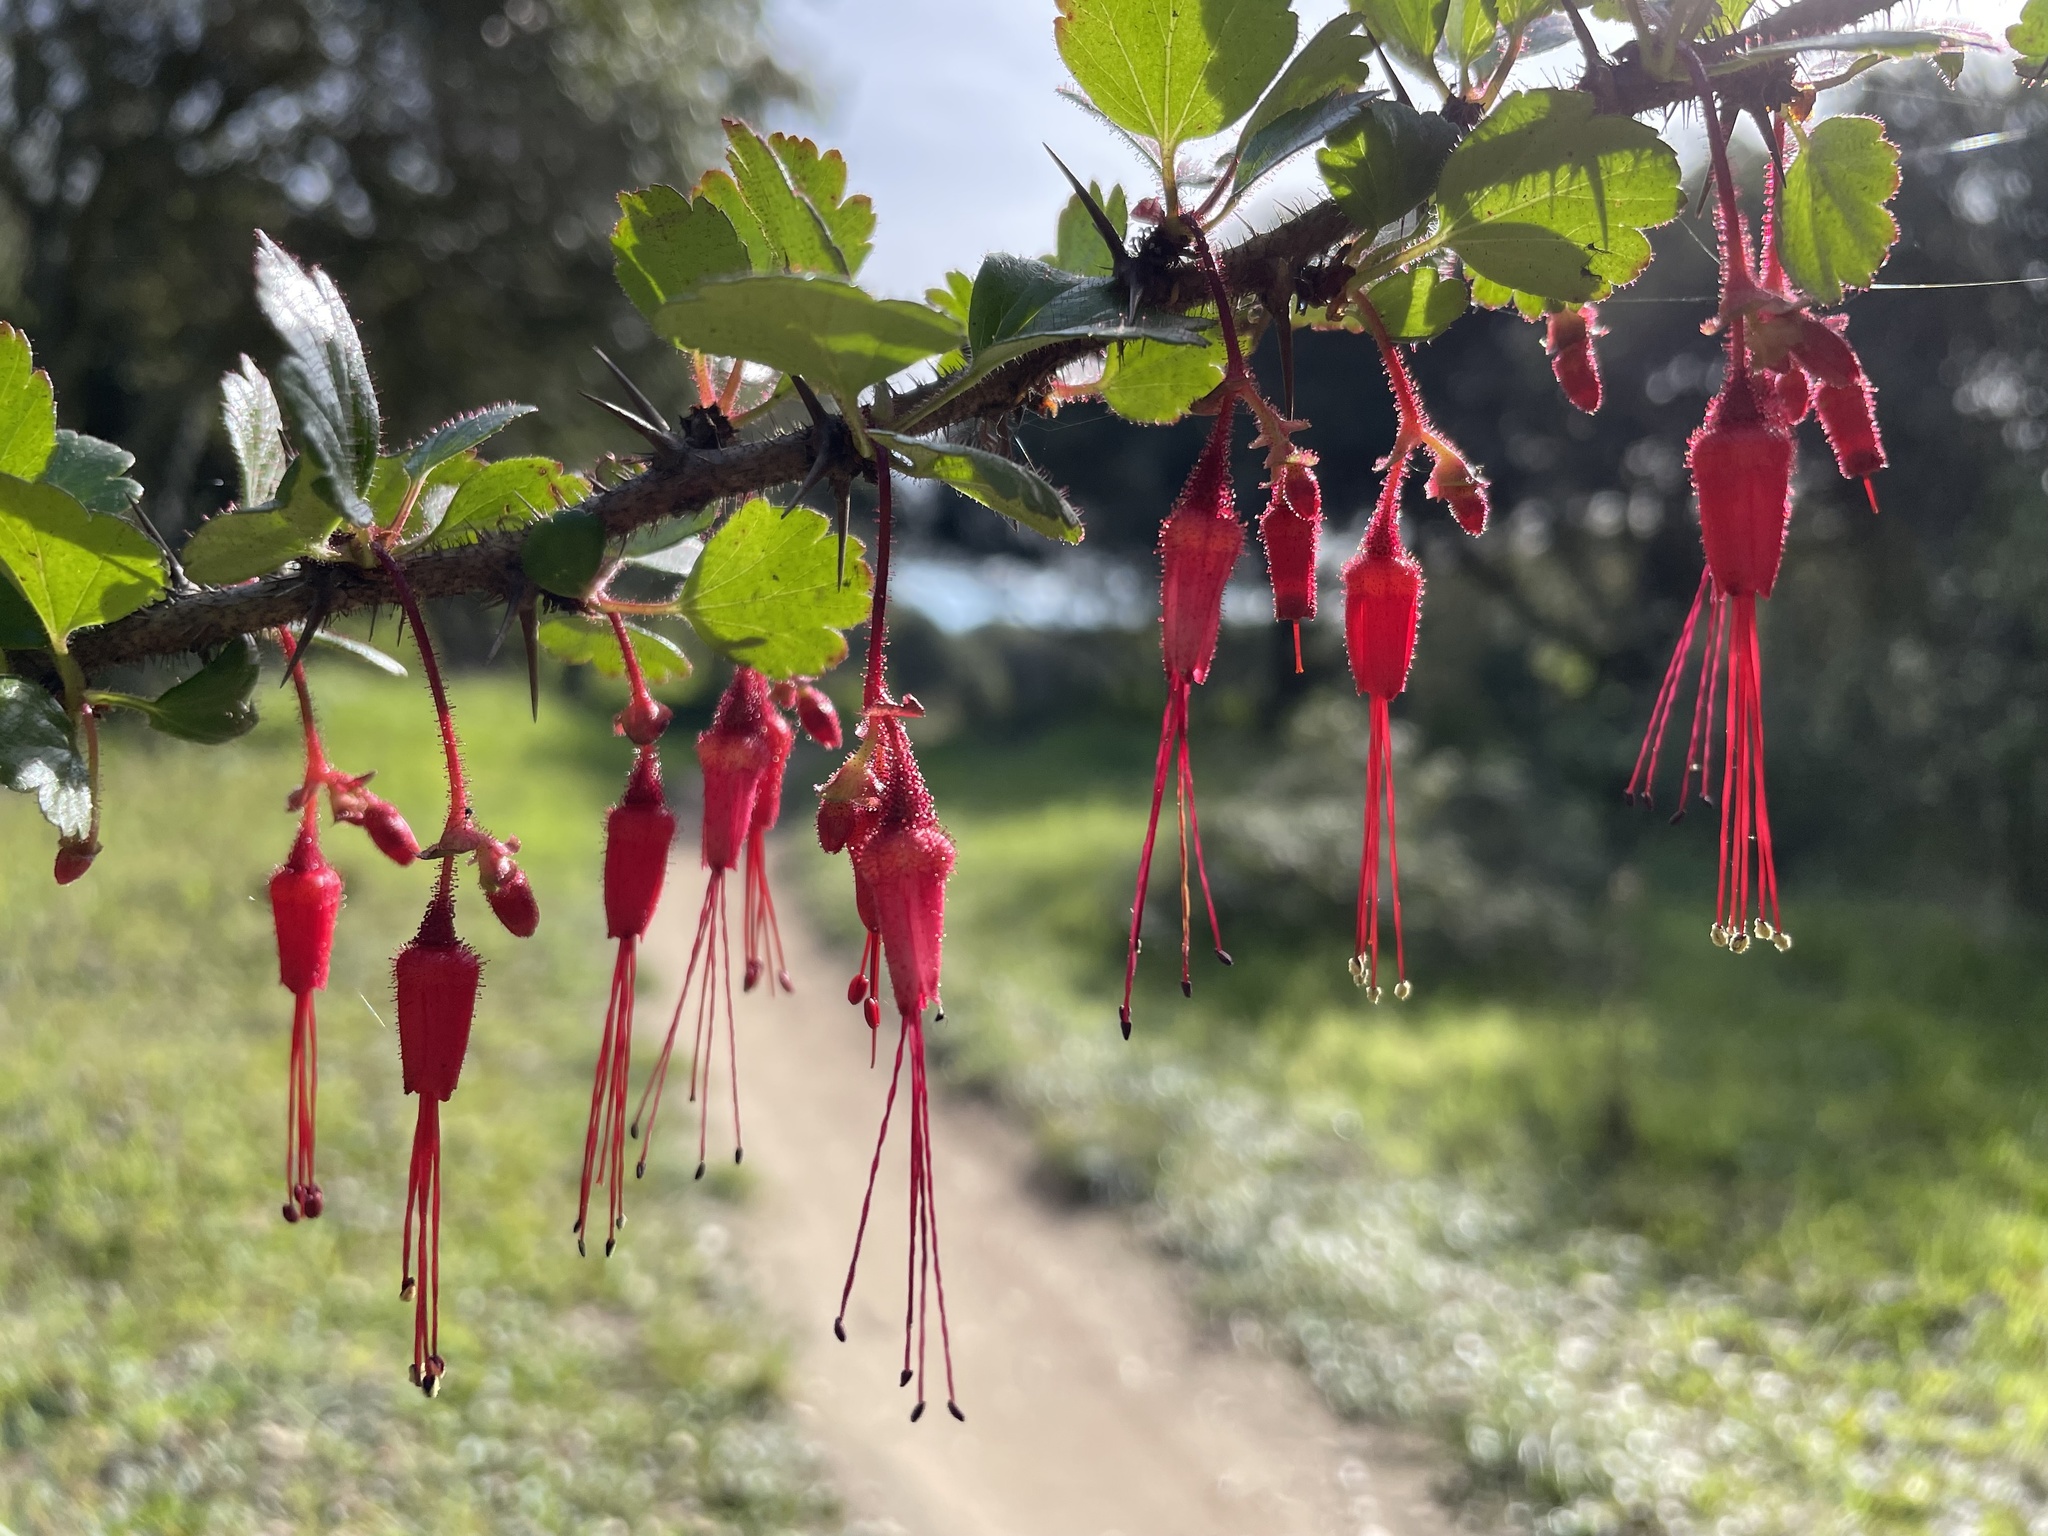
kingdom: Plantae
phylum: Tracheophyta
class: Magnoliopsida
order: Saxifragales
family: Grossulariaceae
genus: Ribes
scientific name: Ribes speciosum
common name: Fuchsia-flower gooseberry
